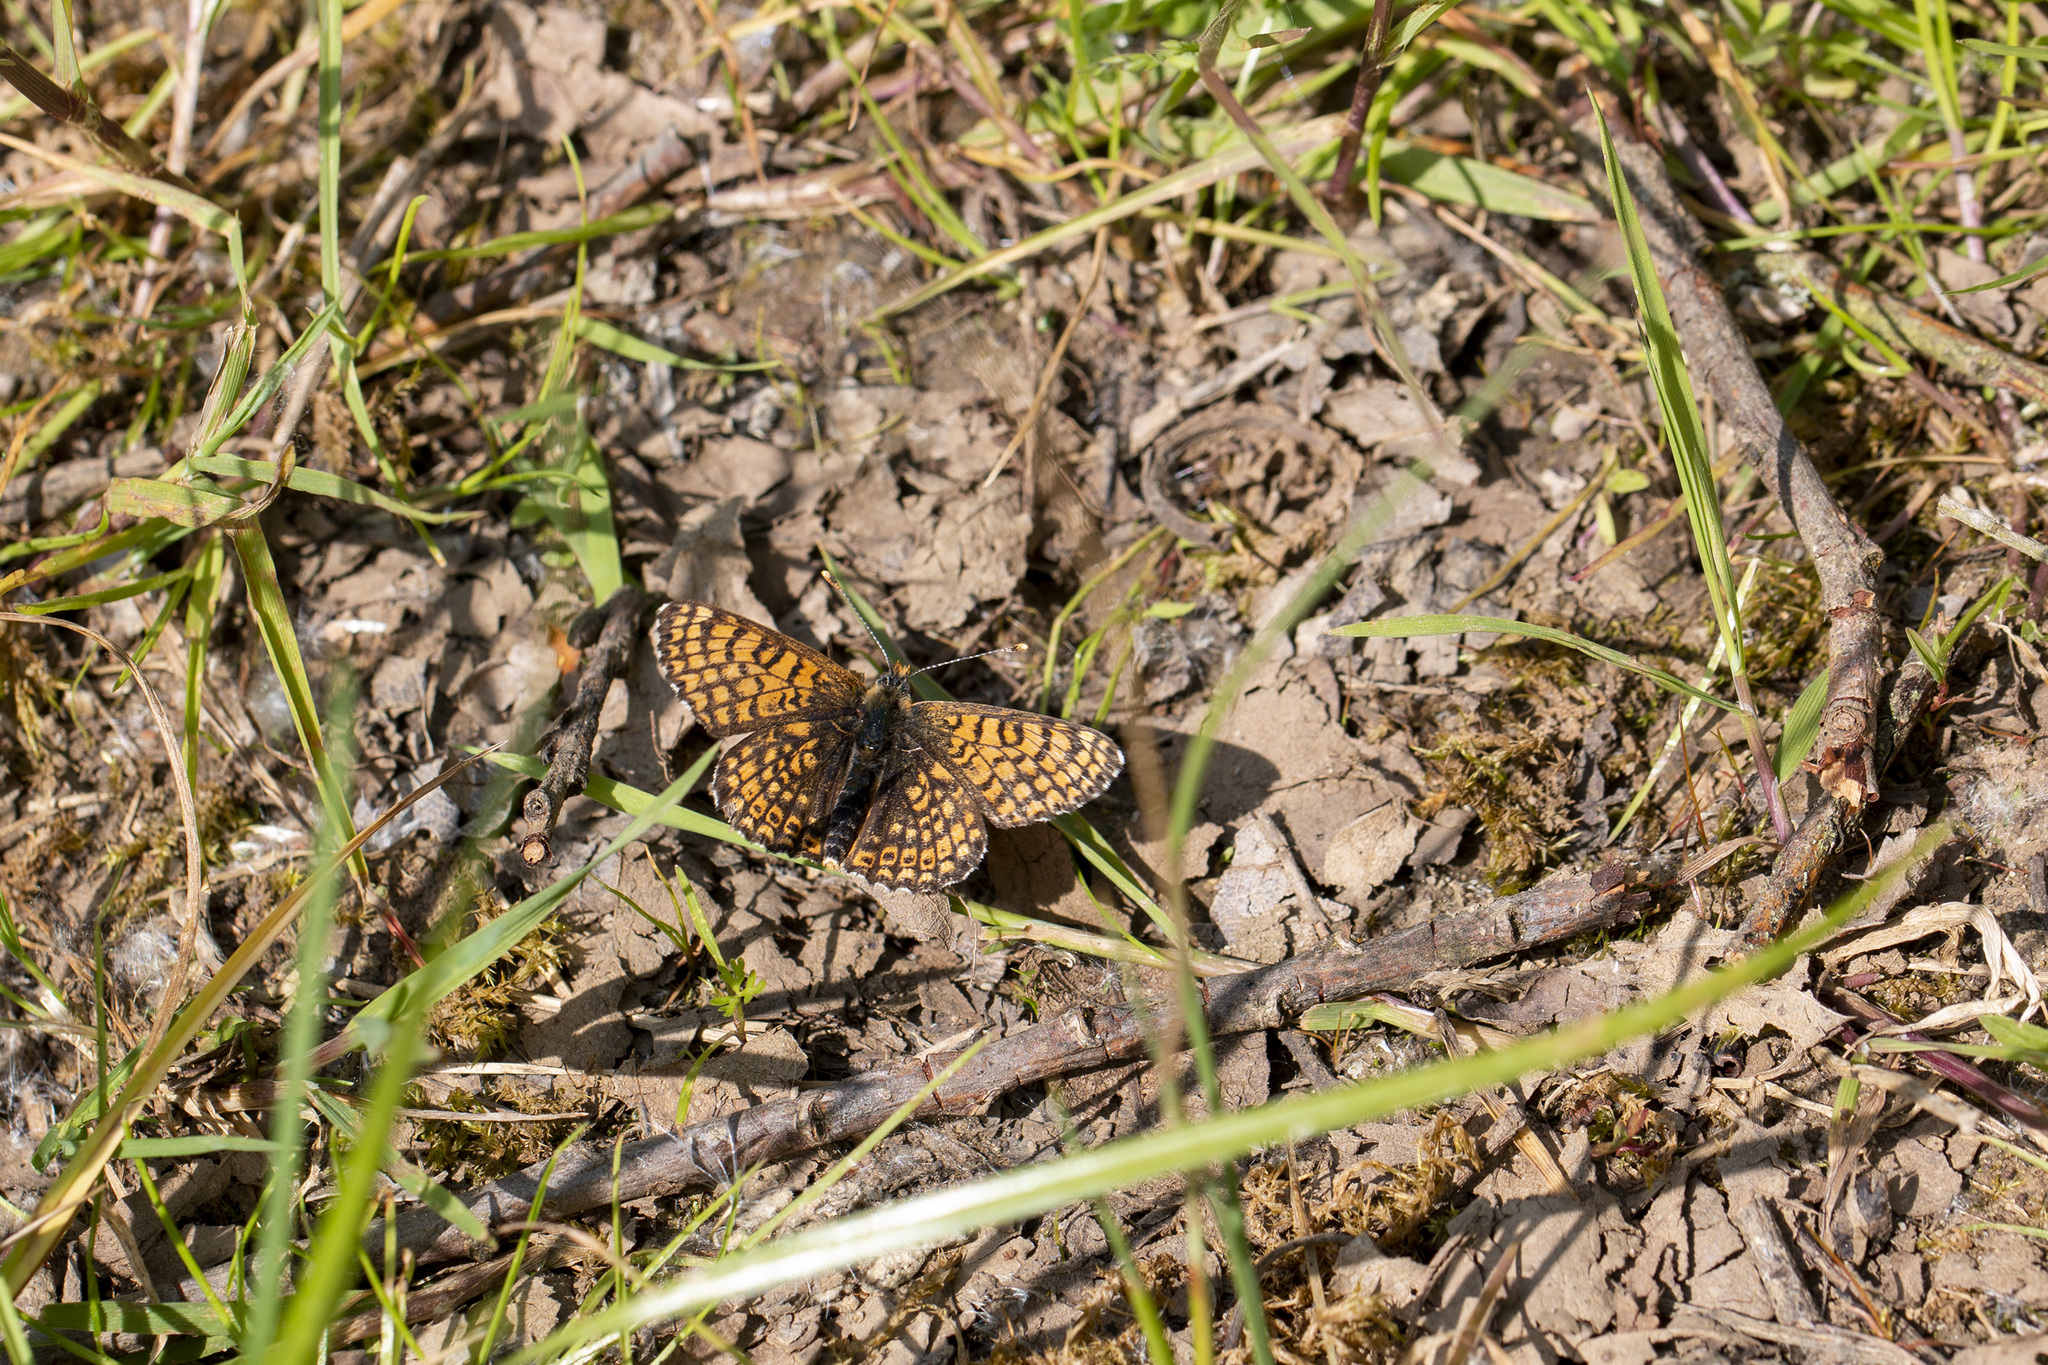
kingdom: Animalia
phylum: Arthropoda
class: Insecta
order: Lepidoptera
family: Nymphalidae
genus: Melitaea
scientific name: Melitaea cinxia
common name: Glanville fritillary
